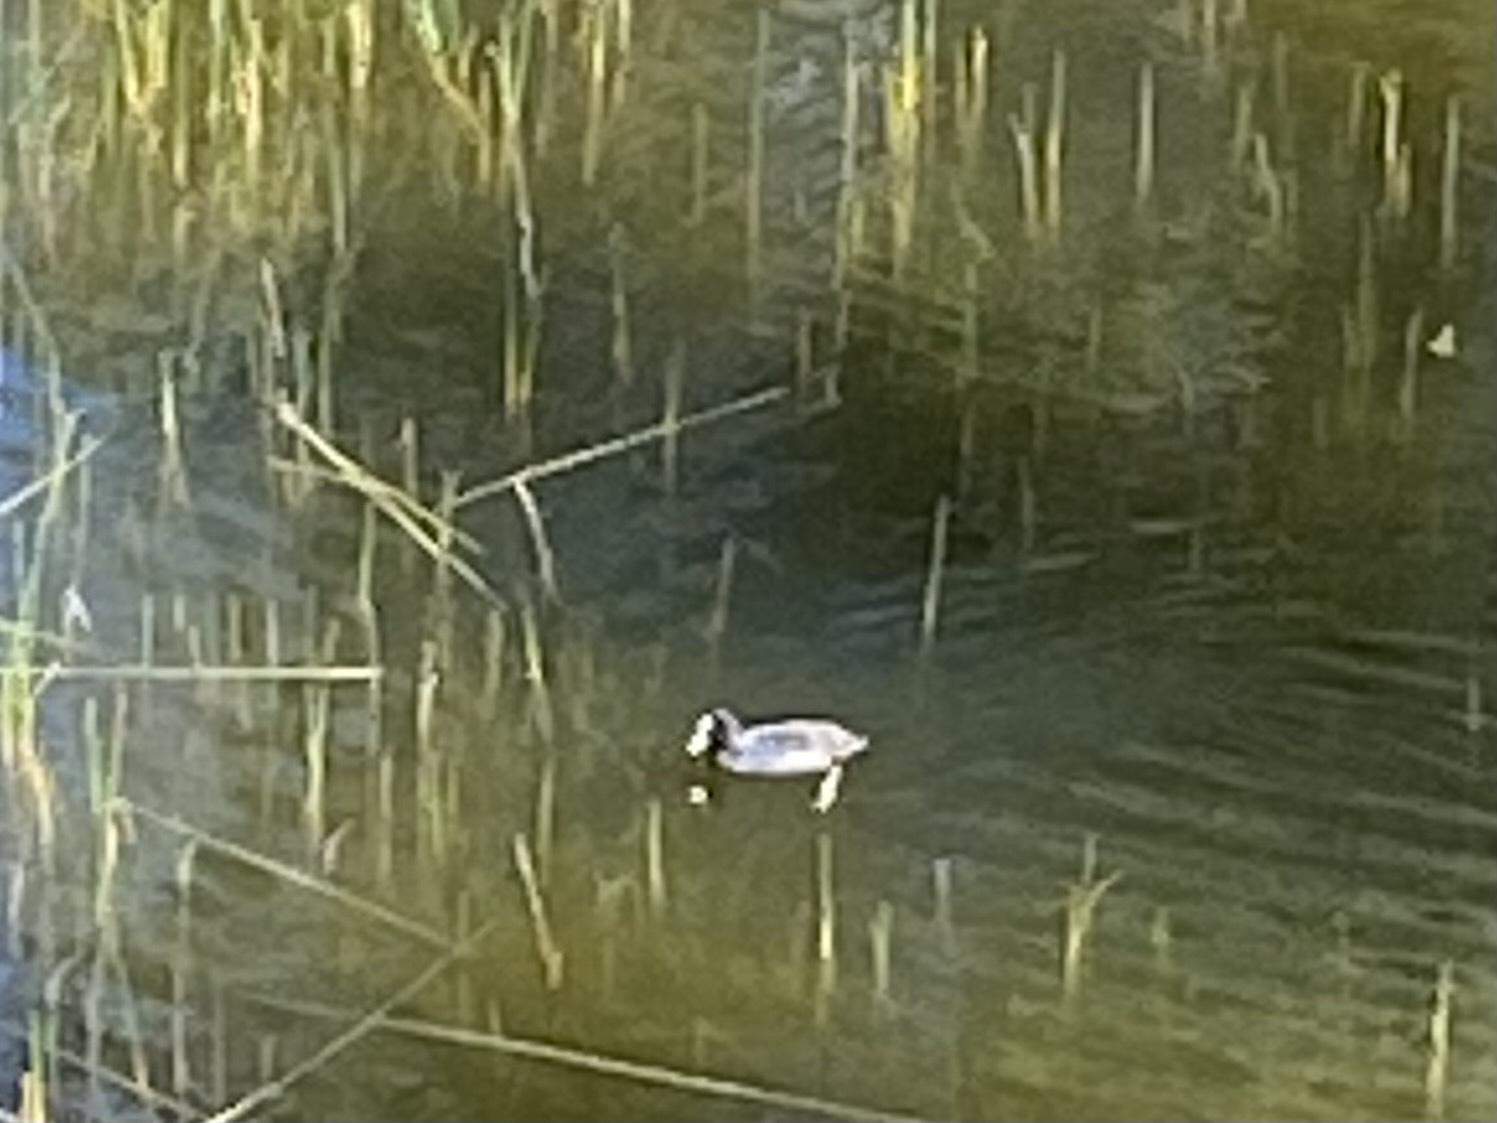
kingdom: Animalia
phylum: Chordata
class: Aves
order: Gruiformes
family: Rallidae
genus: Fulica
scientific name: Fulica atra
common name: Eurasian coot
